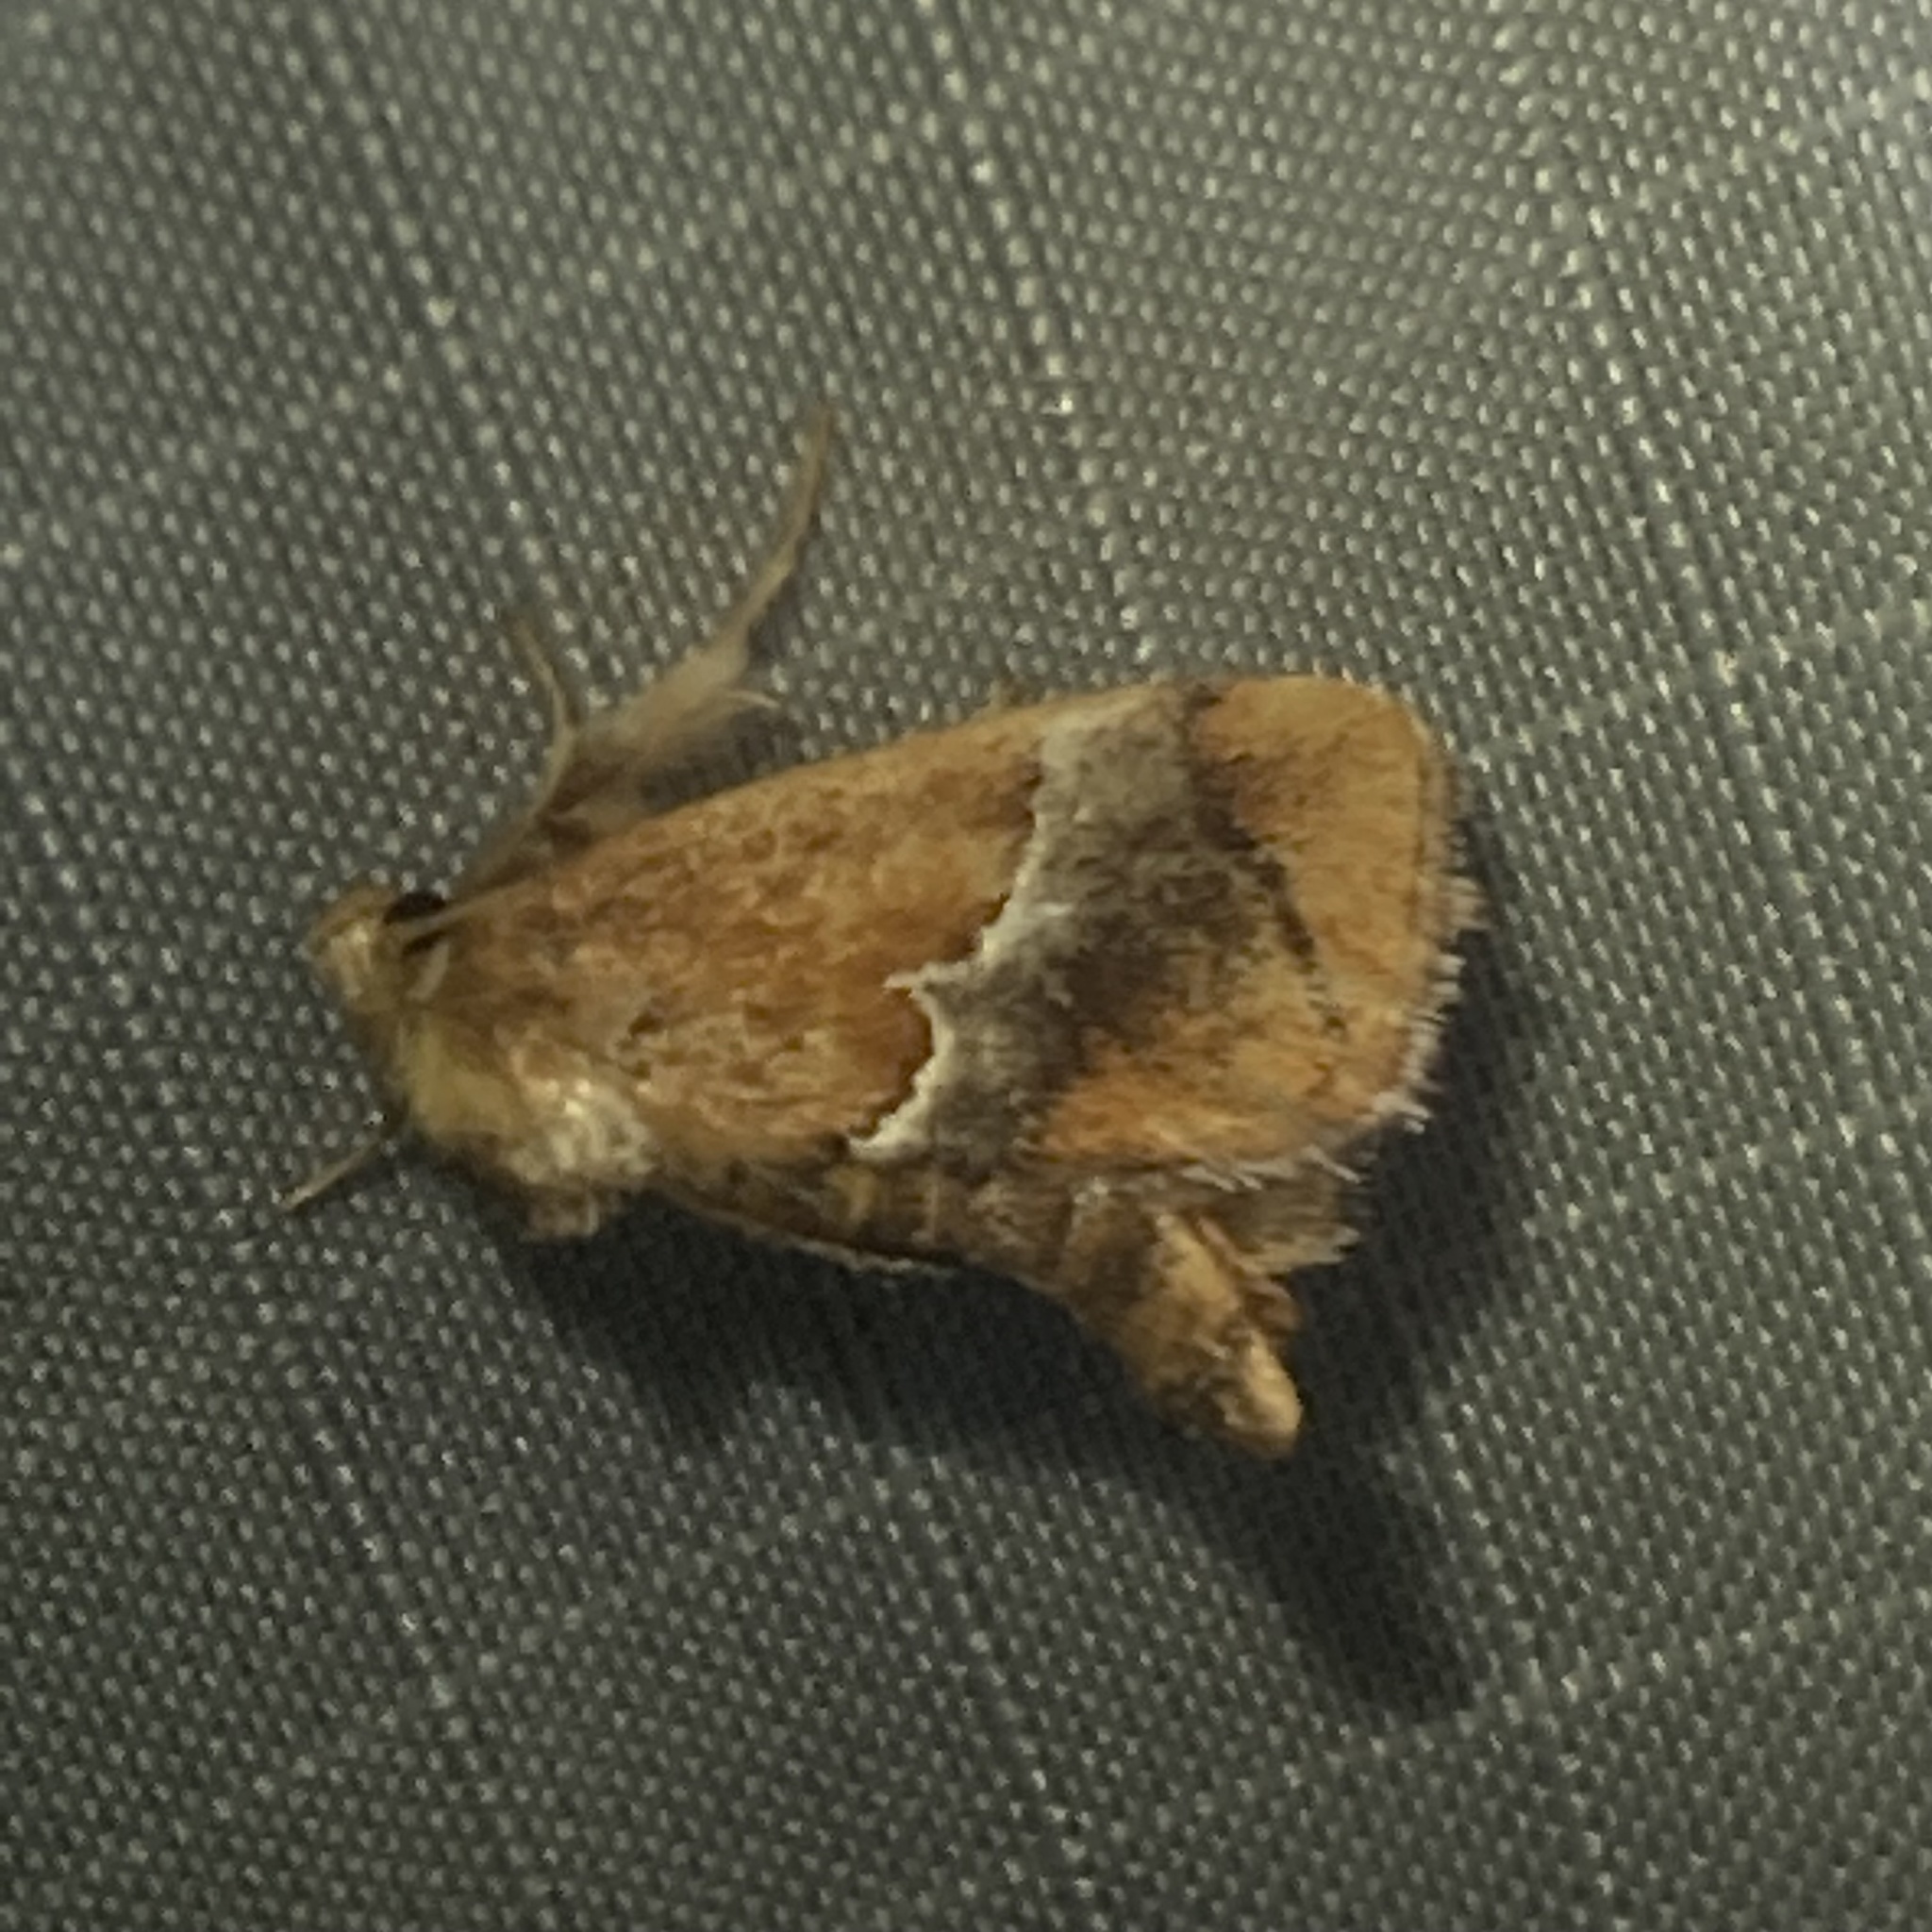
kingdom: Animalia
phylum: Arthropoda
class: Insecta
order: Lepidoptera
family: Limacodidae
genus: Lithacodes
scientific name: Lithacodes fasciola
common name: Yellow-shouldered slug moth
